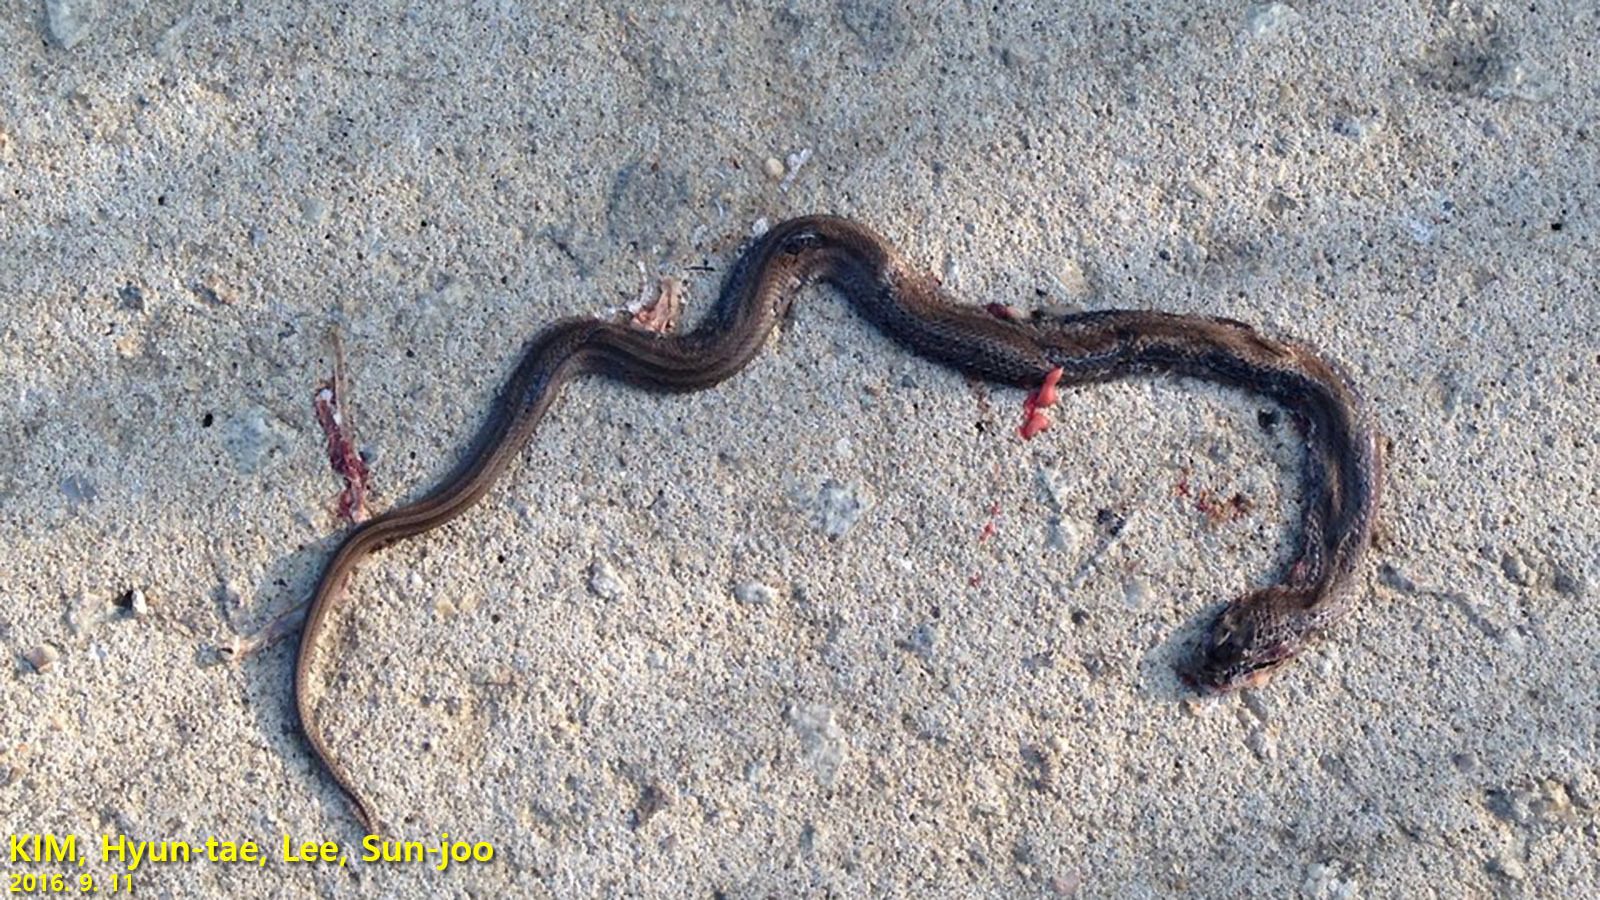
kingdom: Animalia
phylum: Chordata
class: Squamata
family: Colubridae
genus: Oocatochus
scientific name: Oocatochus rufodorsatus
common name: Frog-eating rat snake
